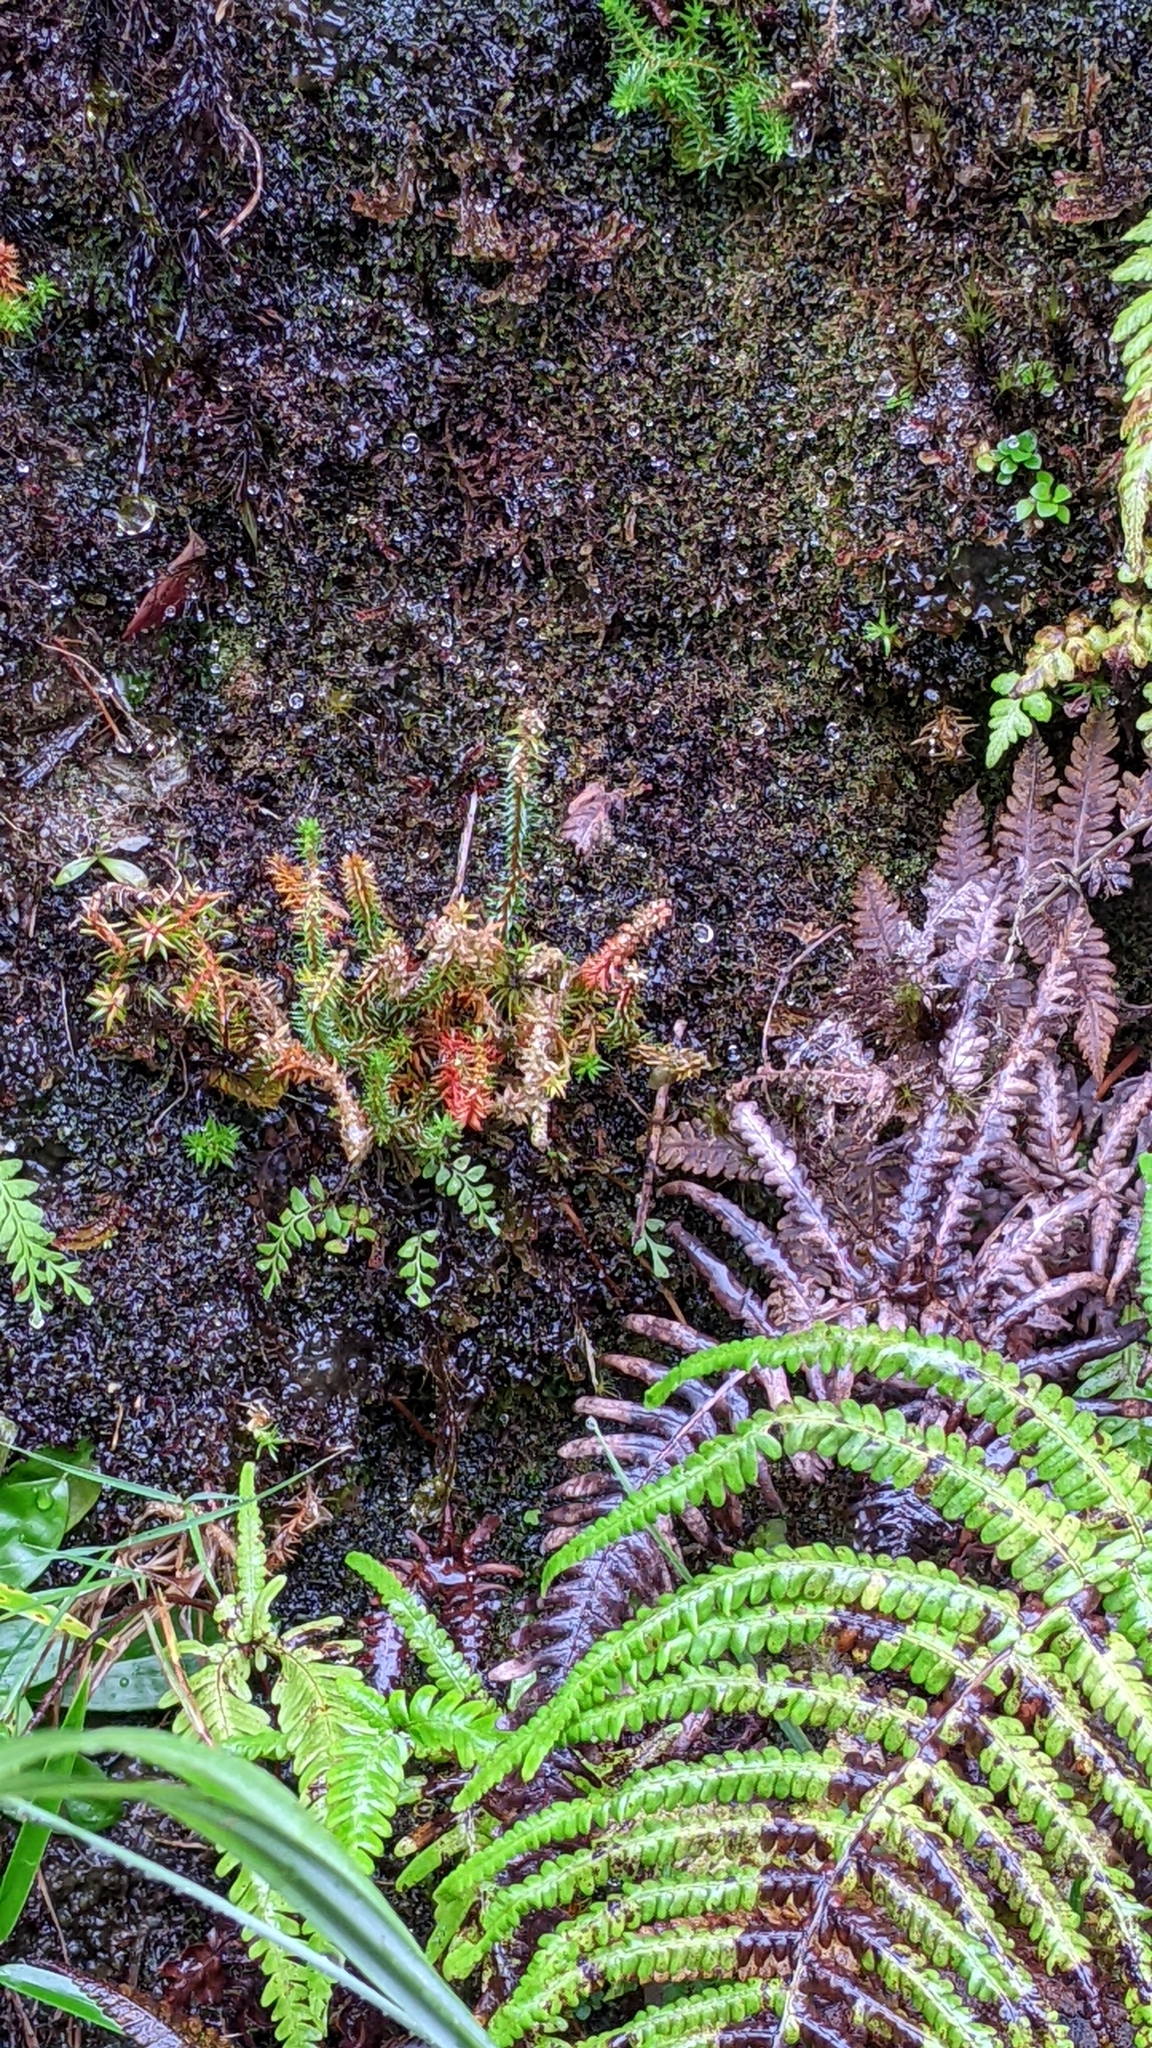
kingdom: Plantae
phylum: Tracheophyta
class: Lycopodiopsida
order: Lycopodiales
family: Lycopodiaceae
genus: Huperzia
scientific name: Huperzia somae
